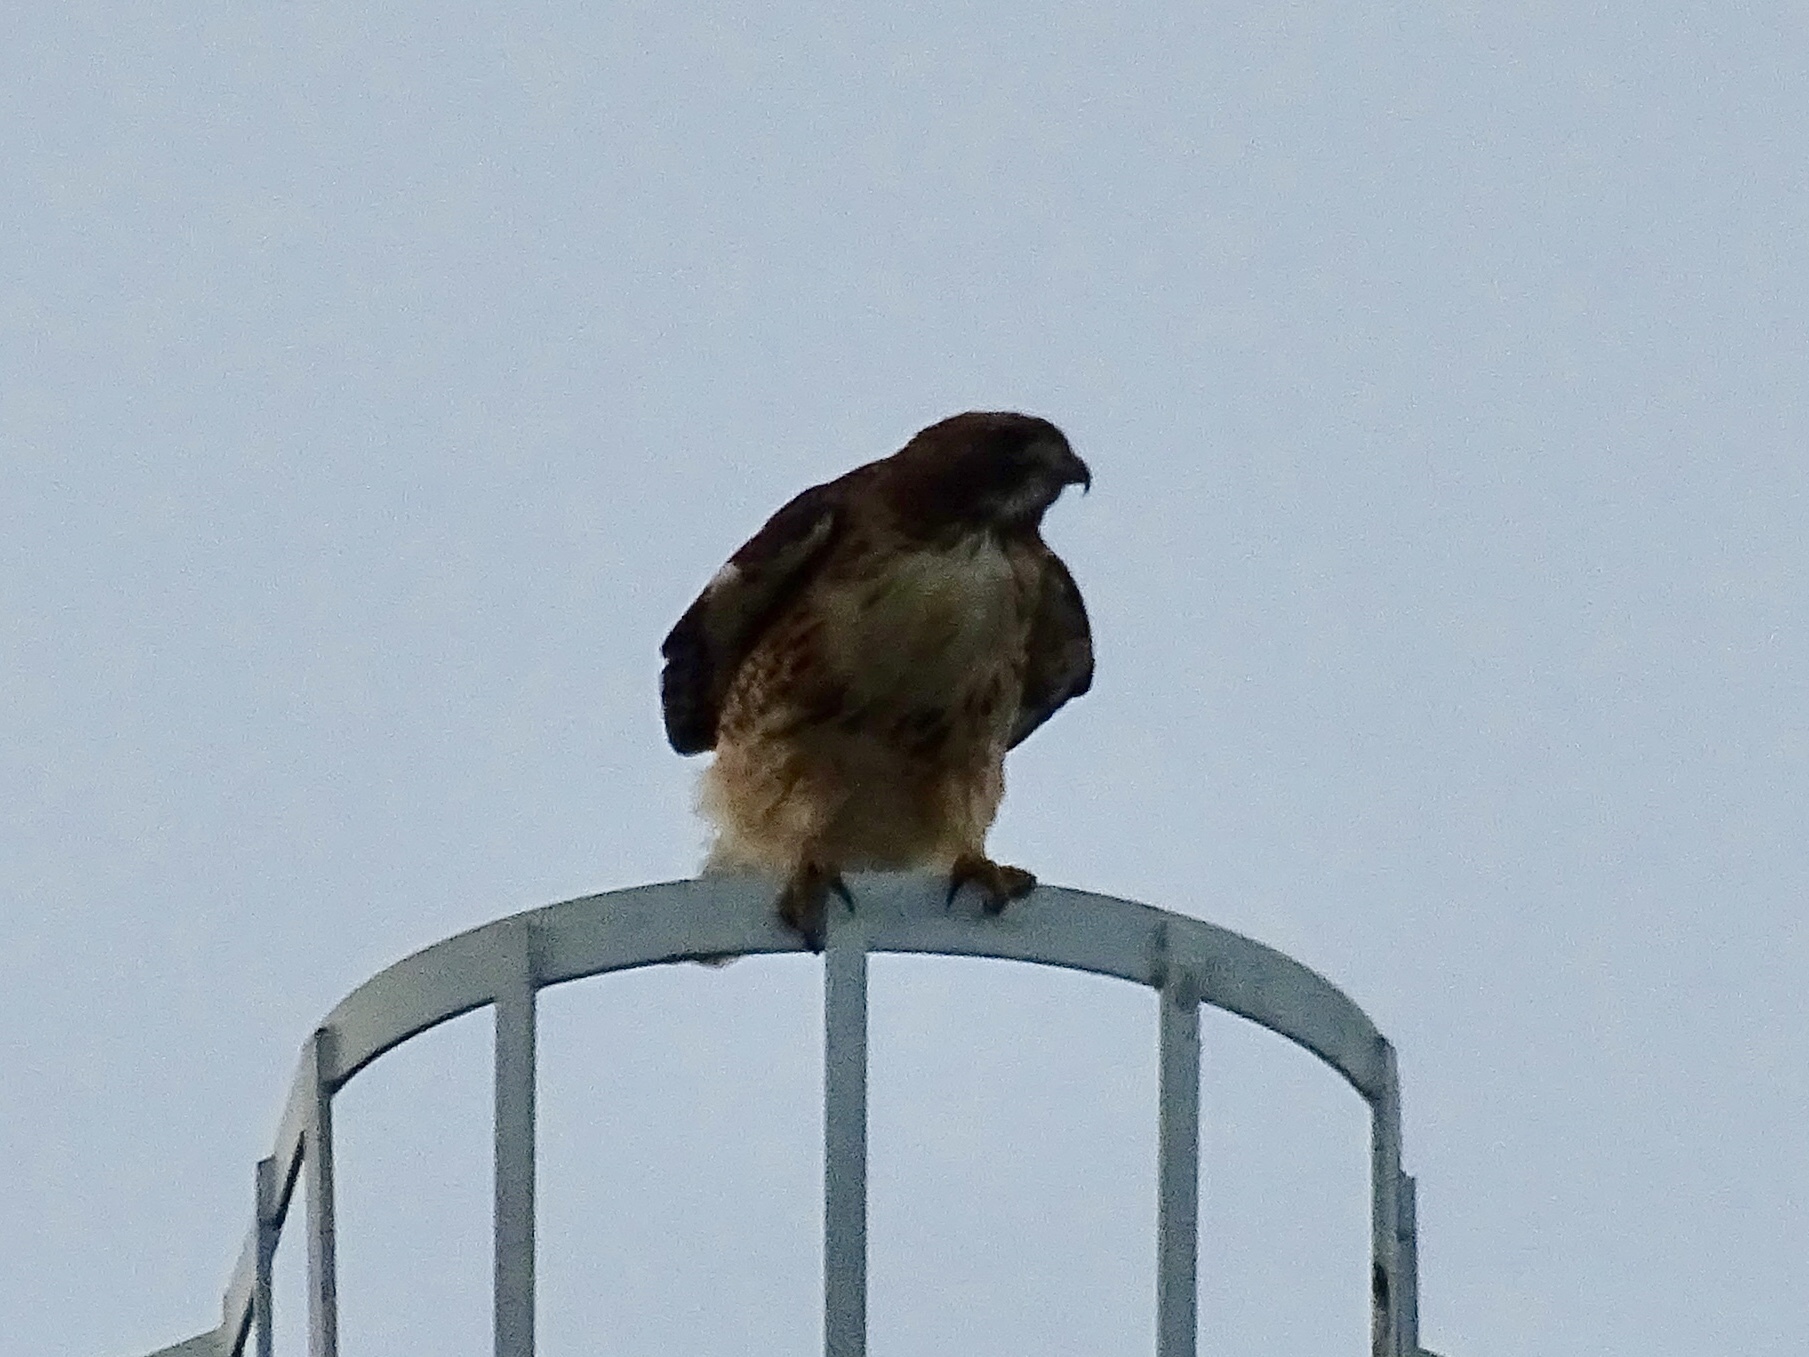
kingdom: Animalia
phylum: Chordata
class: Aves
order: Accipitriformes
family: Accipitridae
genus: Buteo
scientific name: Buteo jamaicensis
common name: Red-tailed hawk
